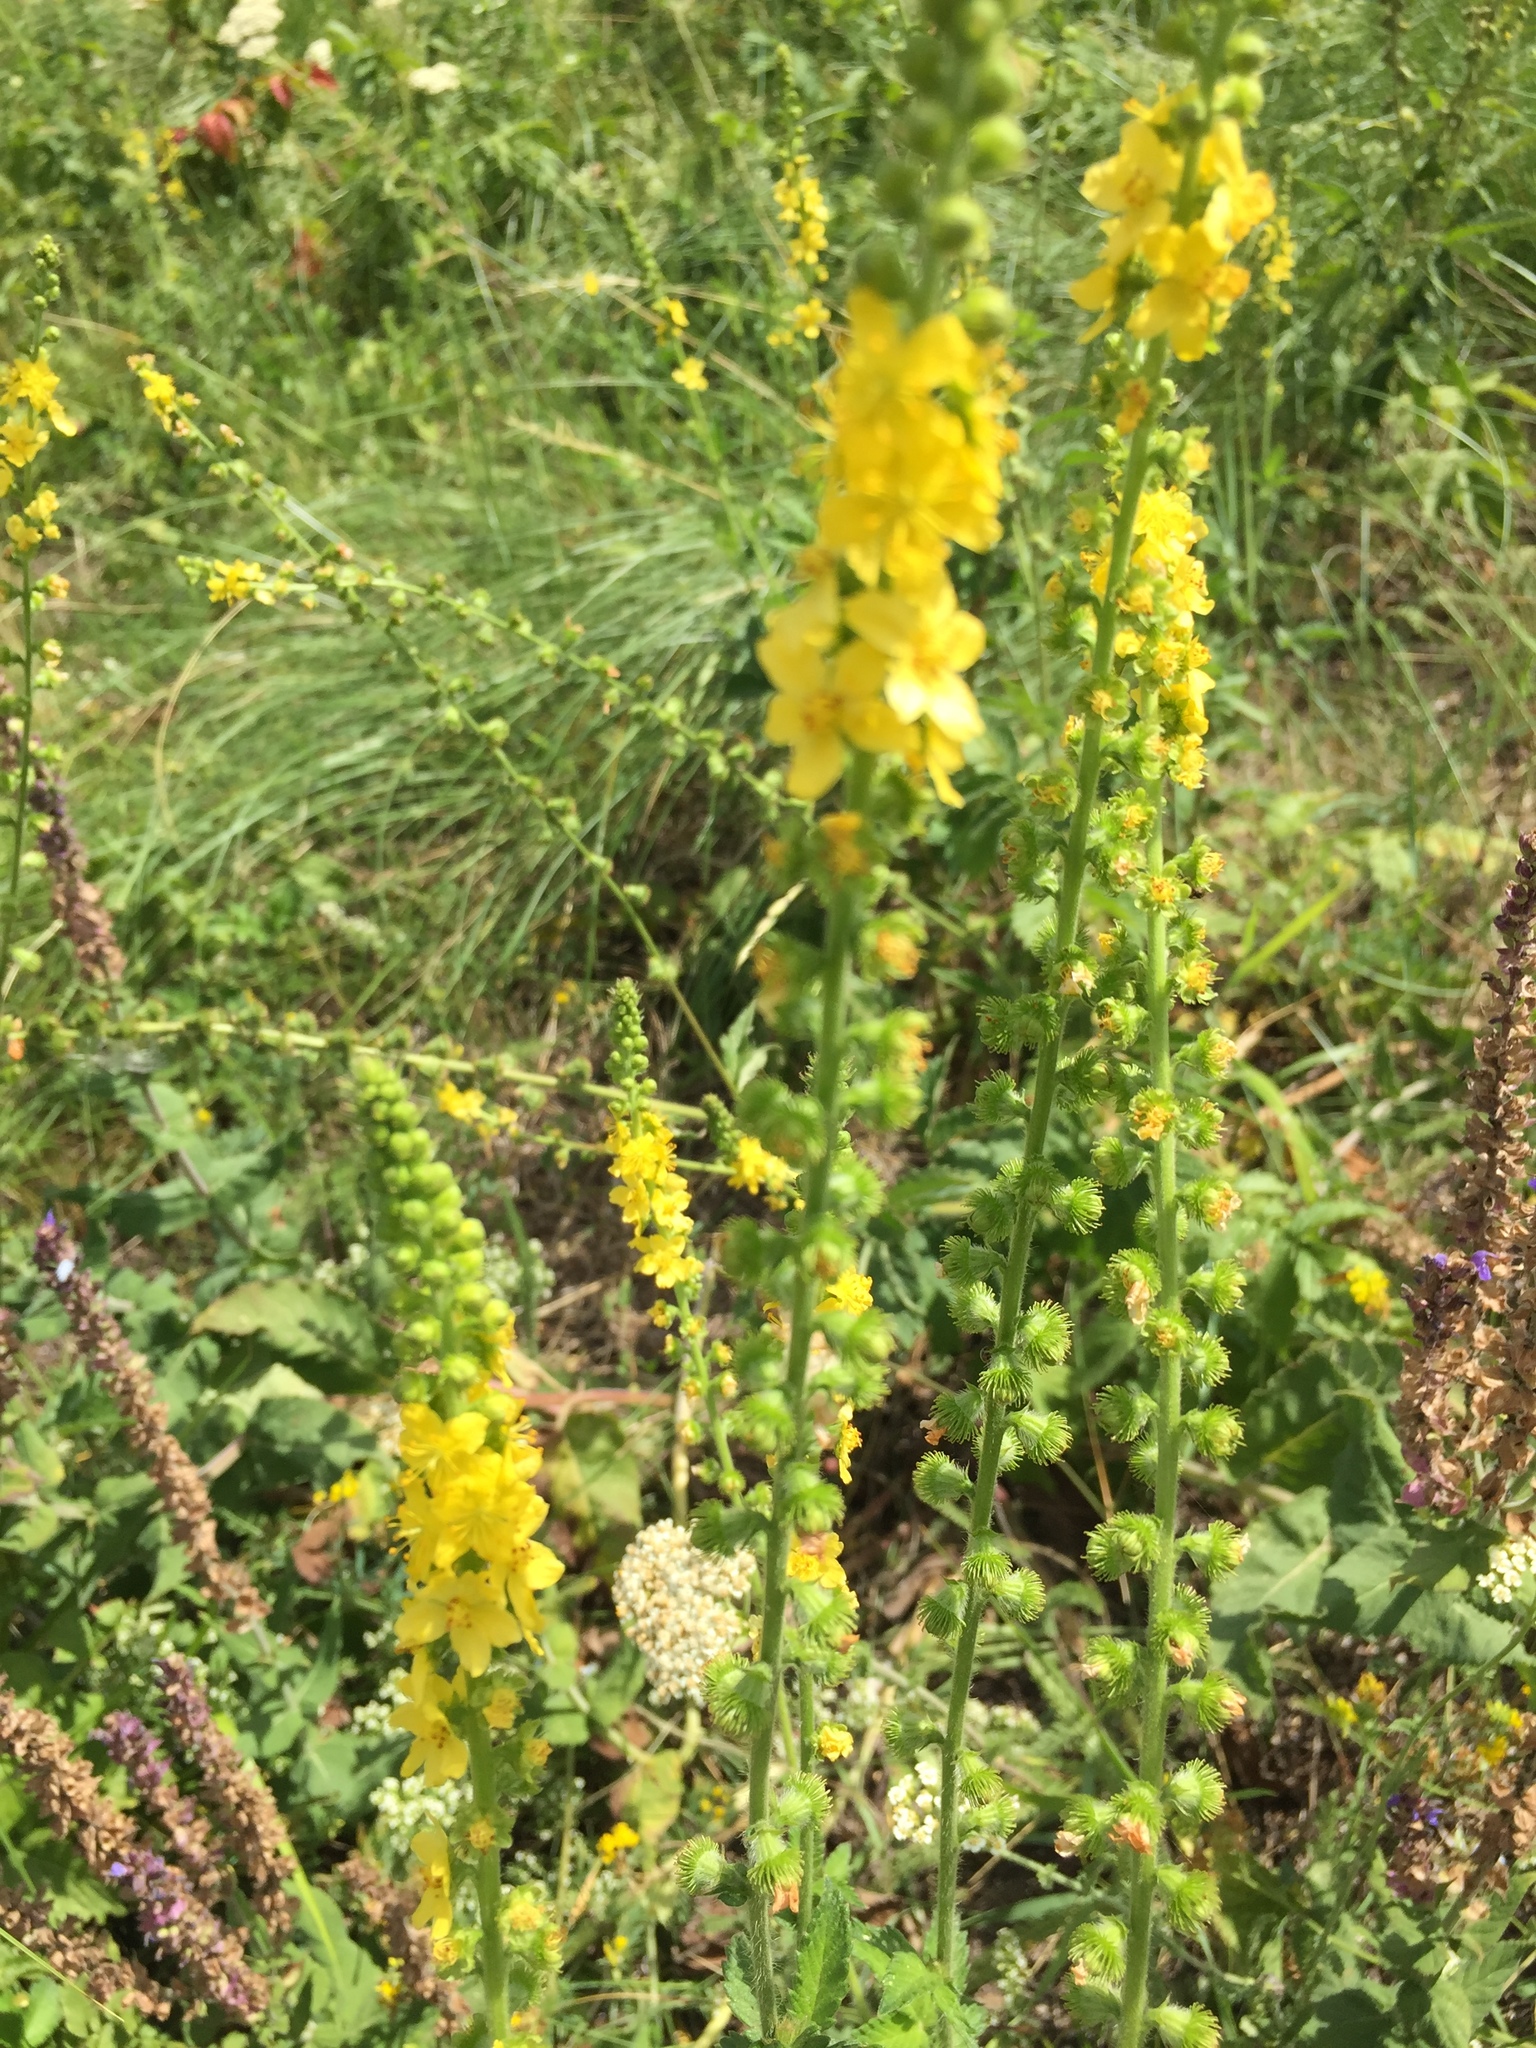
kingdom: Plantae
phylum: Tracheophyta
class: Magnoliopsida
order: Rosales
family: Rosaceae
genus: Agrimonia
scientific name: Agrimonia eupatoria
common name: Agrimony
